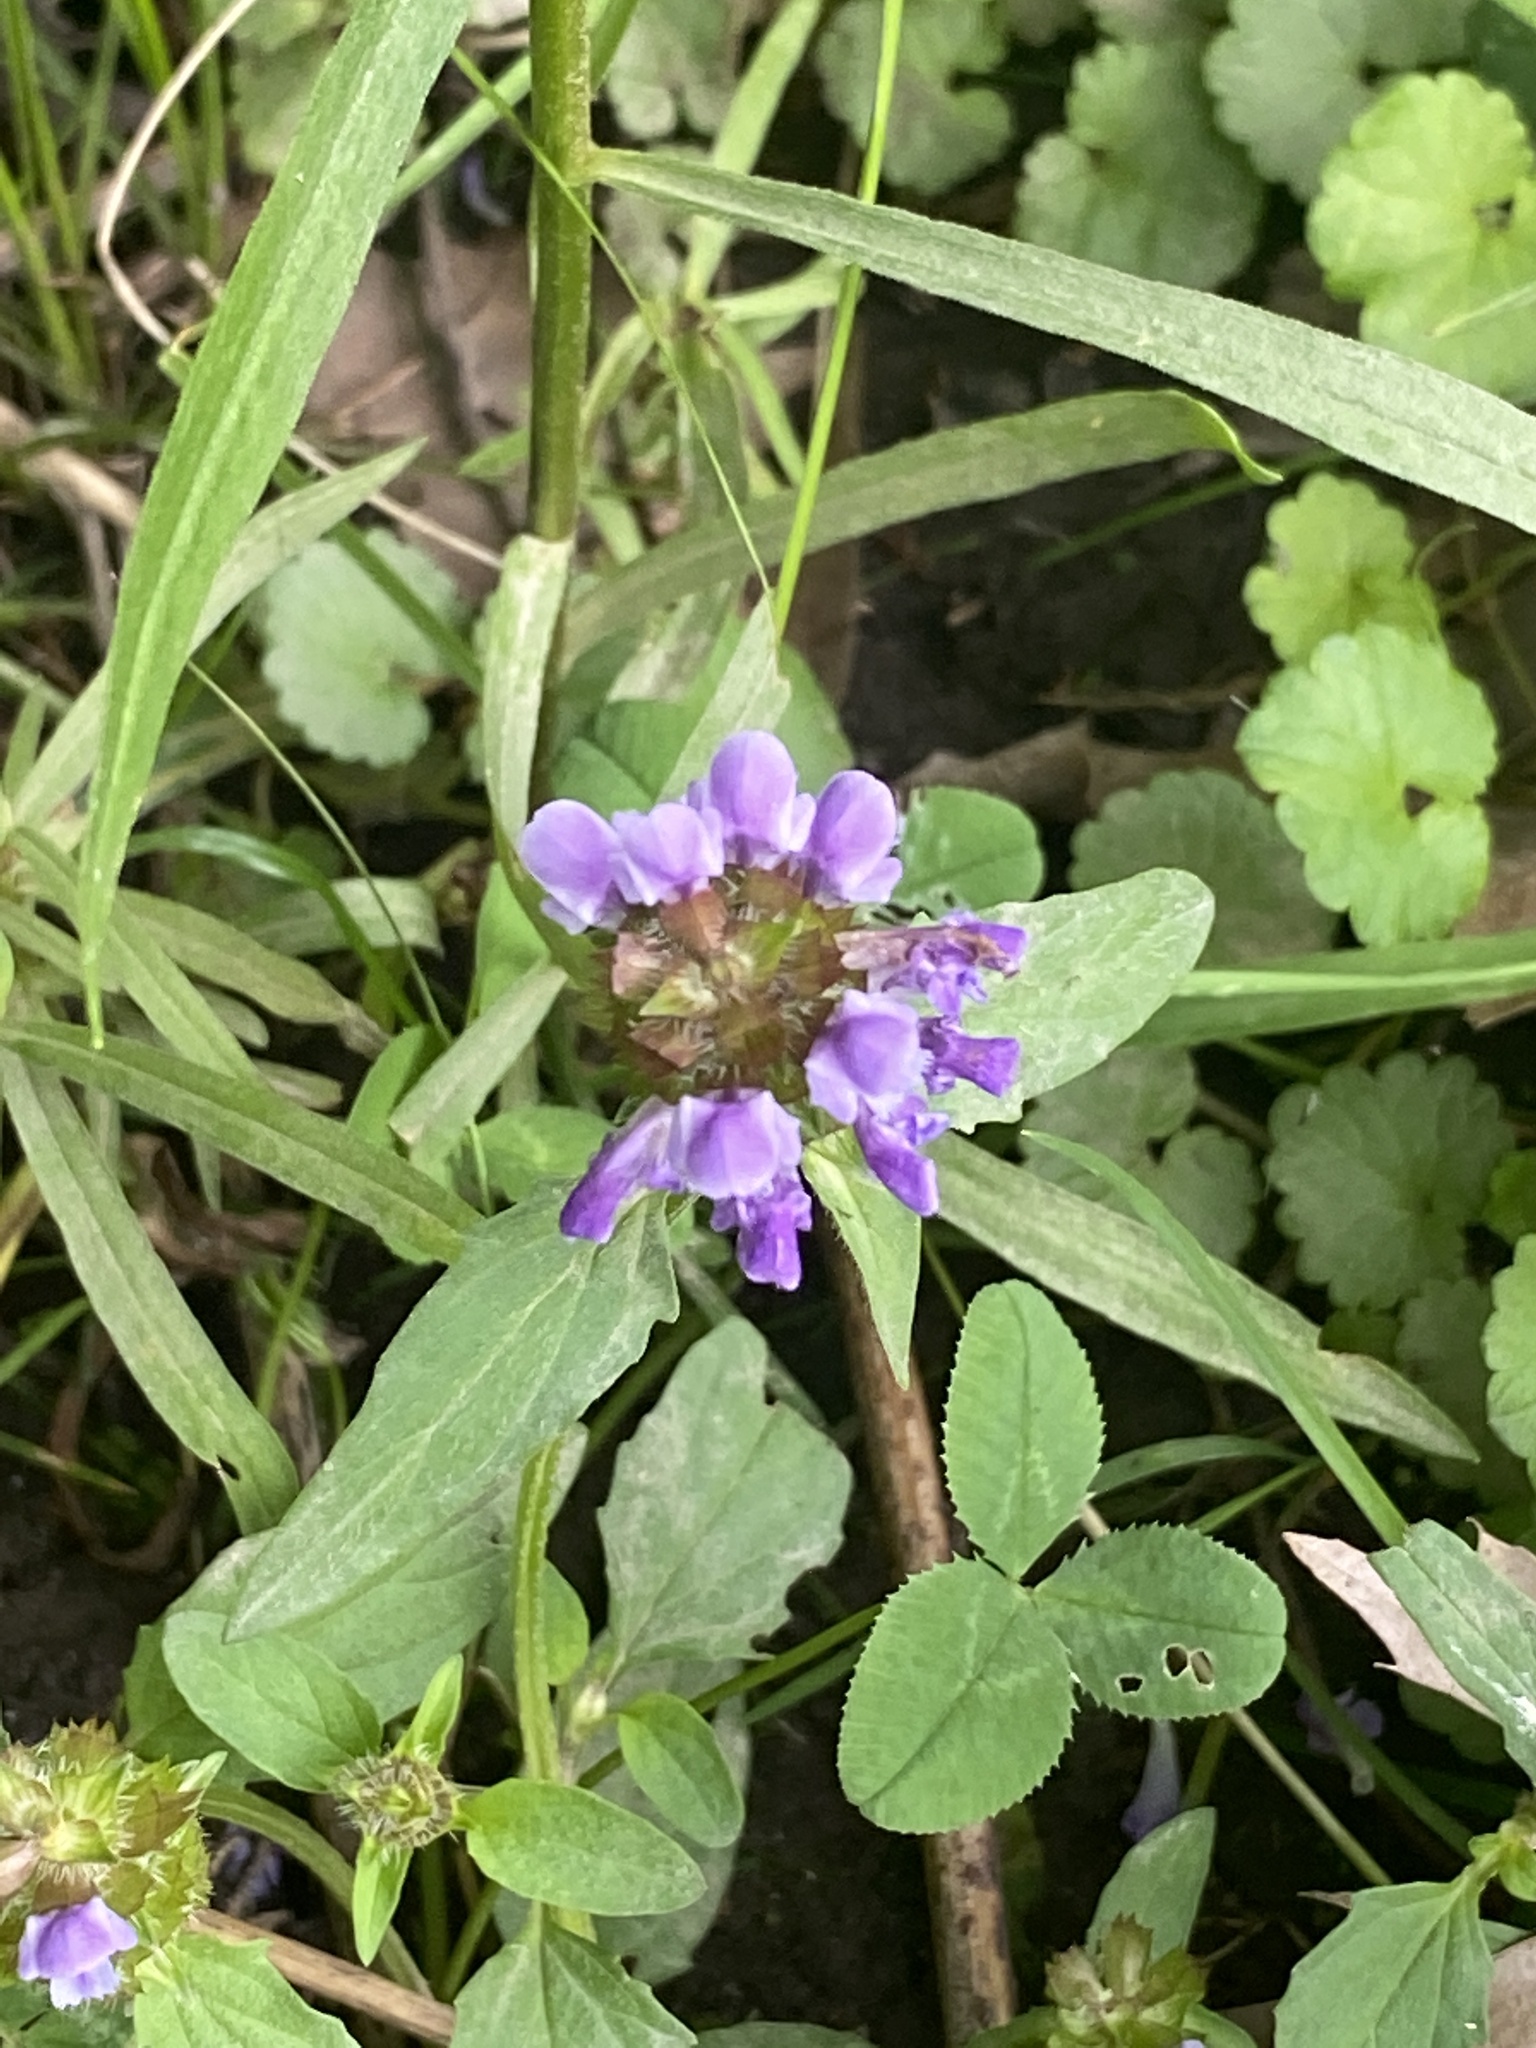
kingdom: Plantae
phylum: Tracheophyta
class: Magnoliopsida
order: Lamiales
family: Lamiaceae
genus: Prunella
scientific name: Prunella vulgaris
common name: Heal-all
